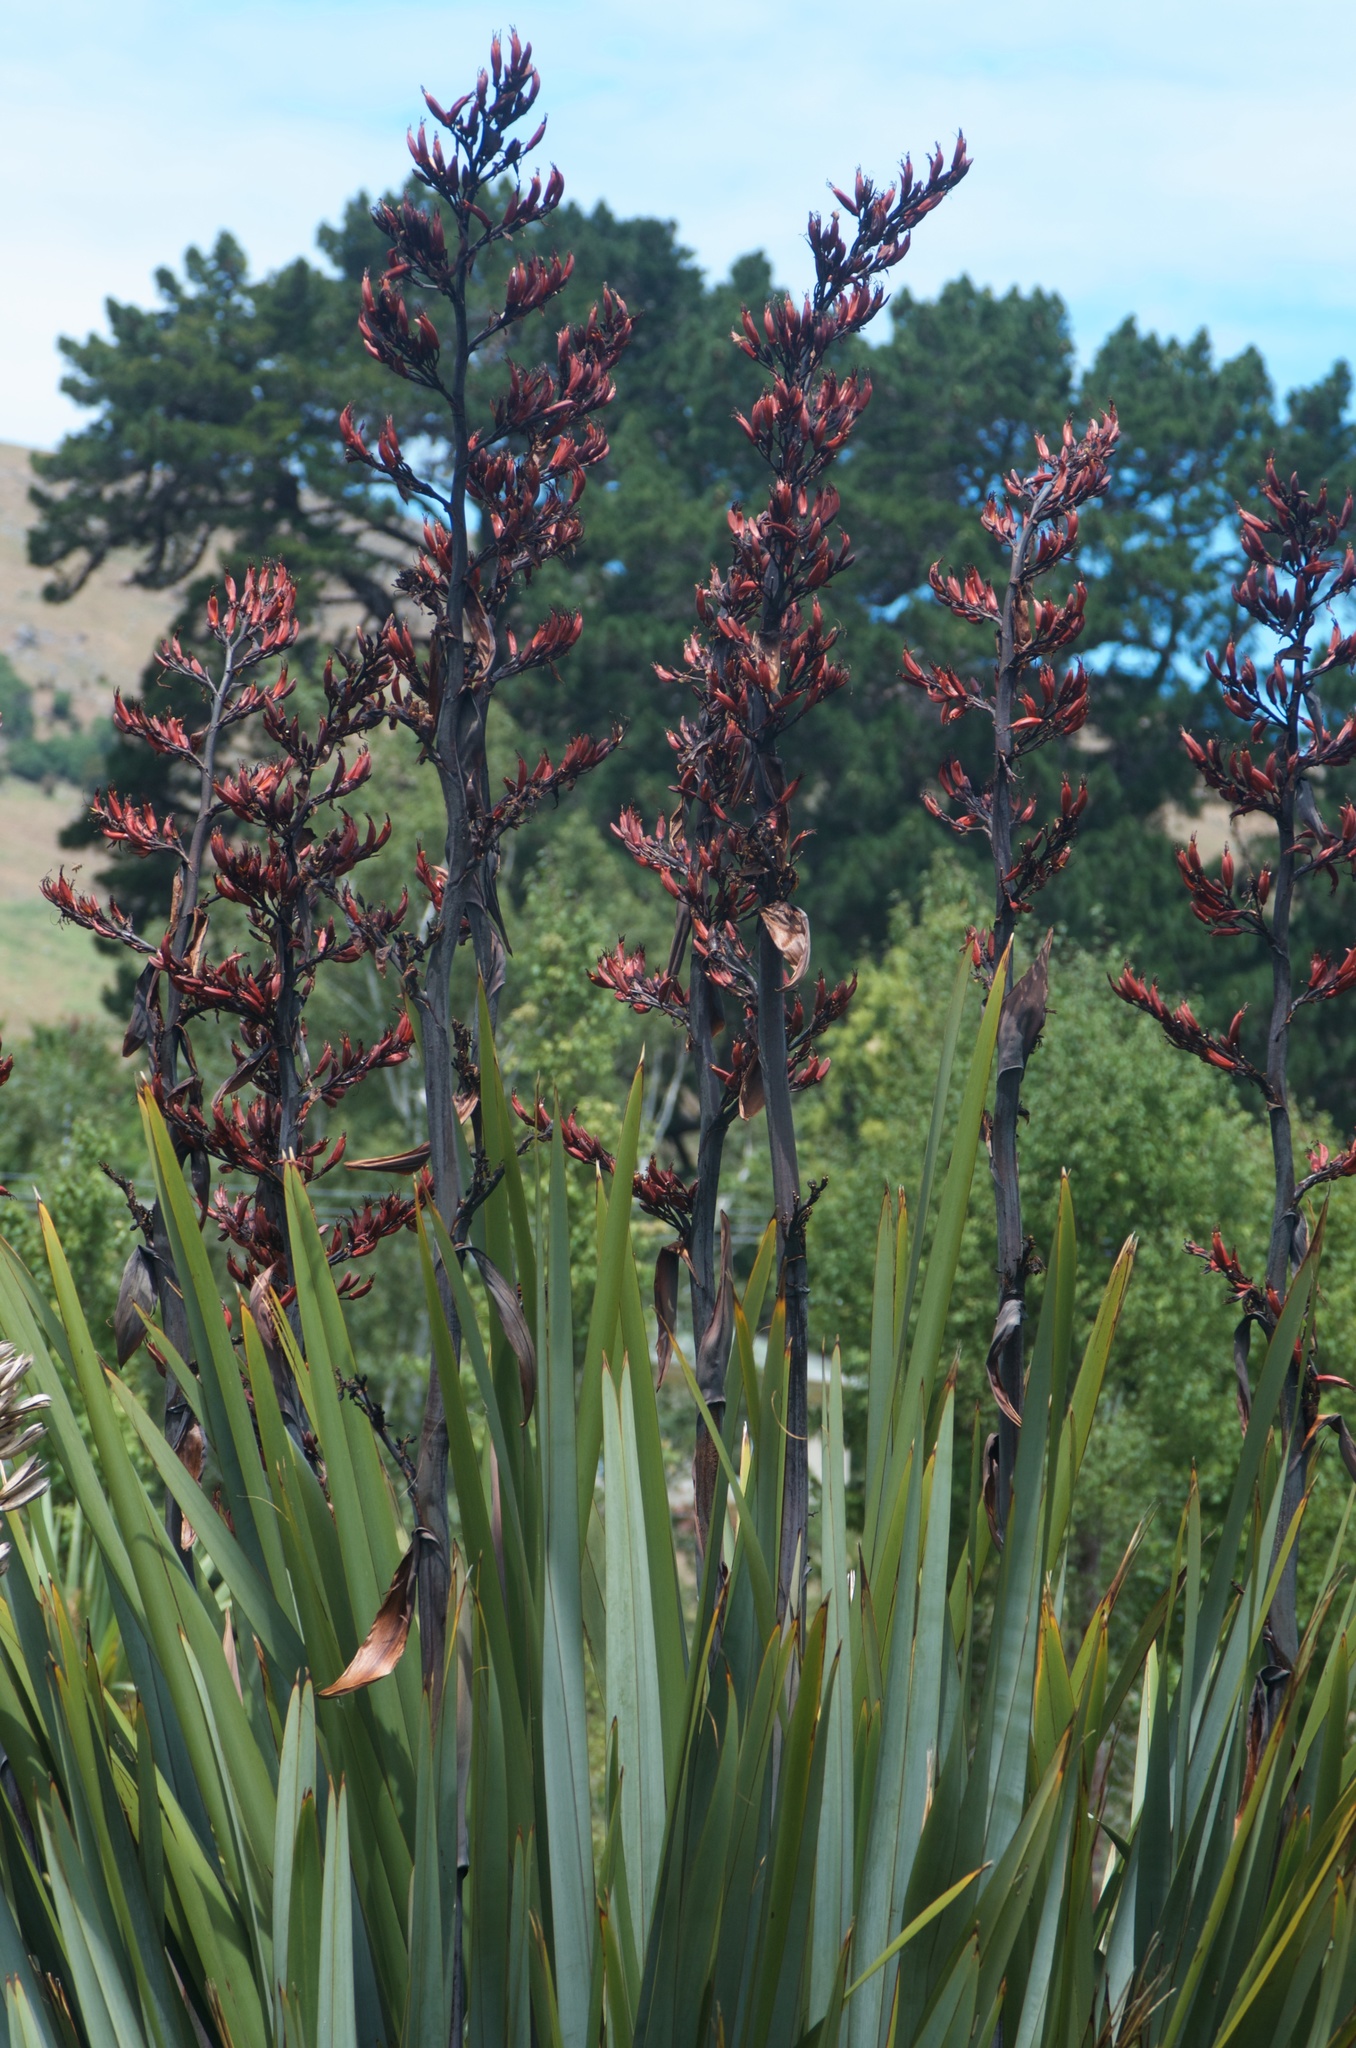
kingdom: Plantae
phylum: Tracheophyta
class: Liliopsida
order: Asparagales
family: Asphodelaceae
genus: Phormium
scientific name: Phormium tenax
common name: New zealand flax
